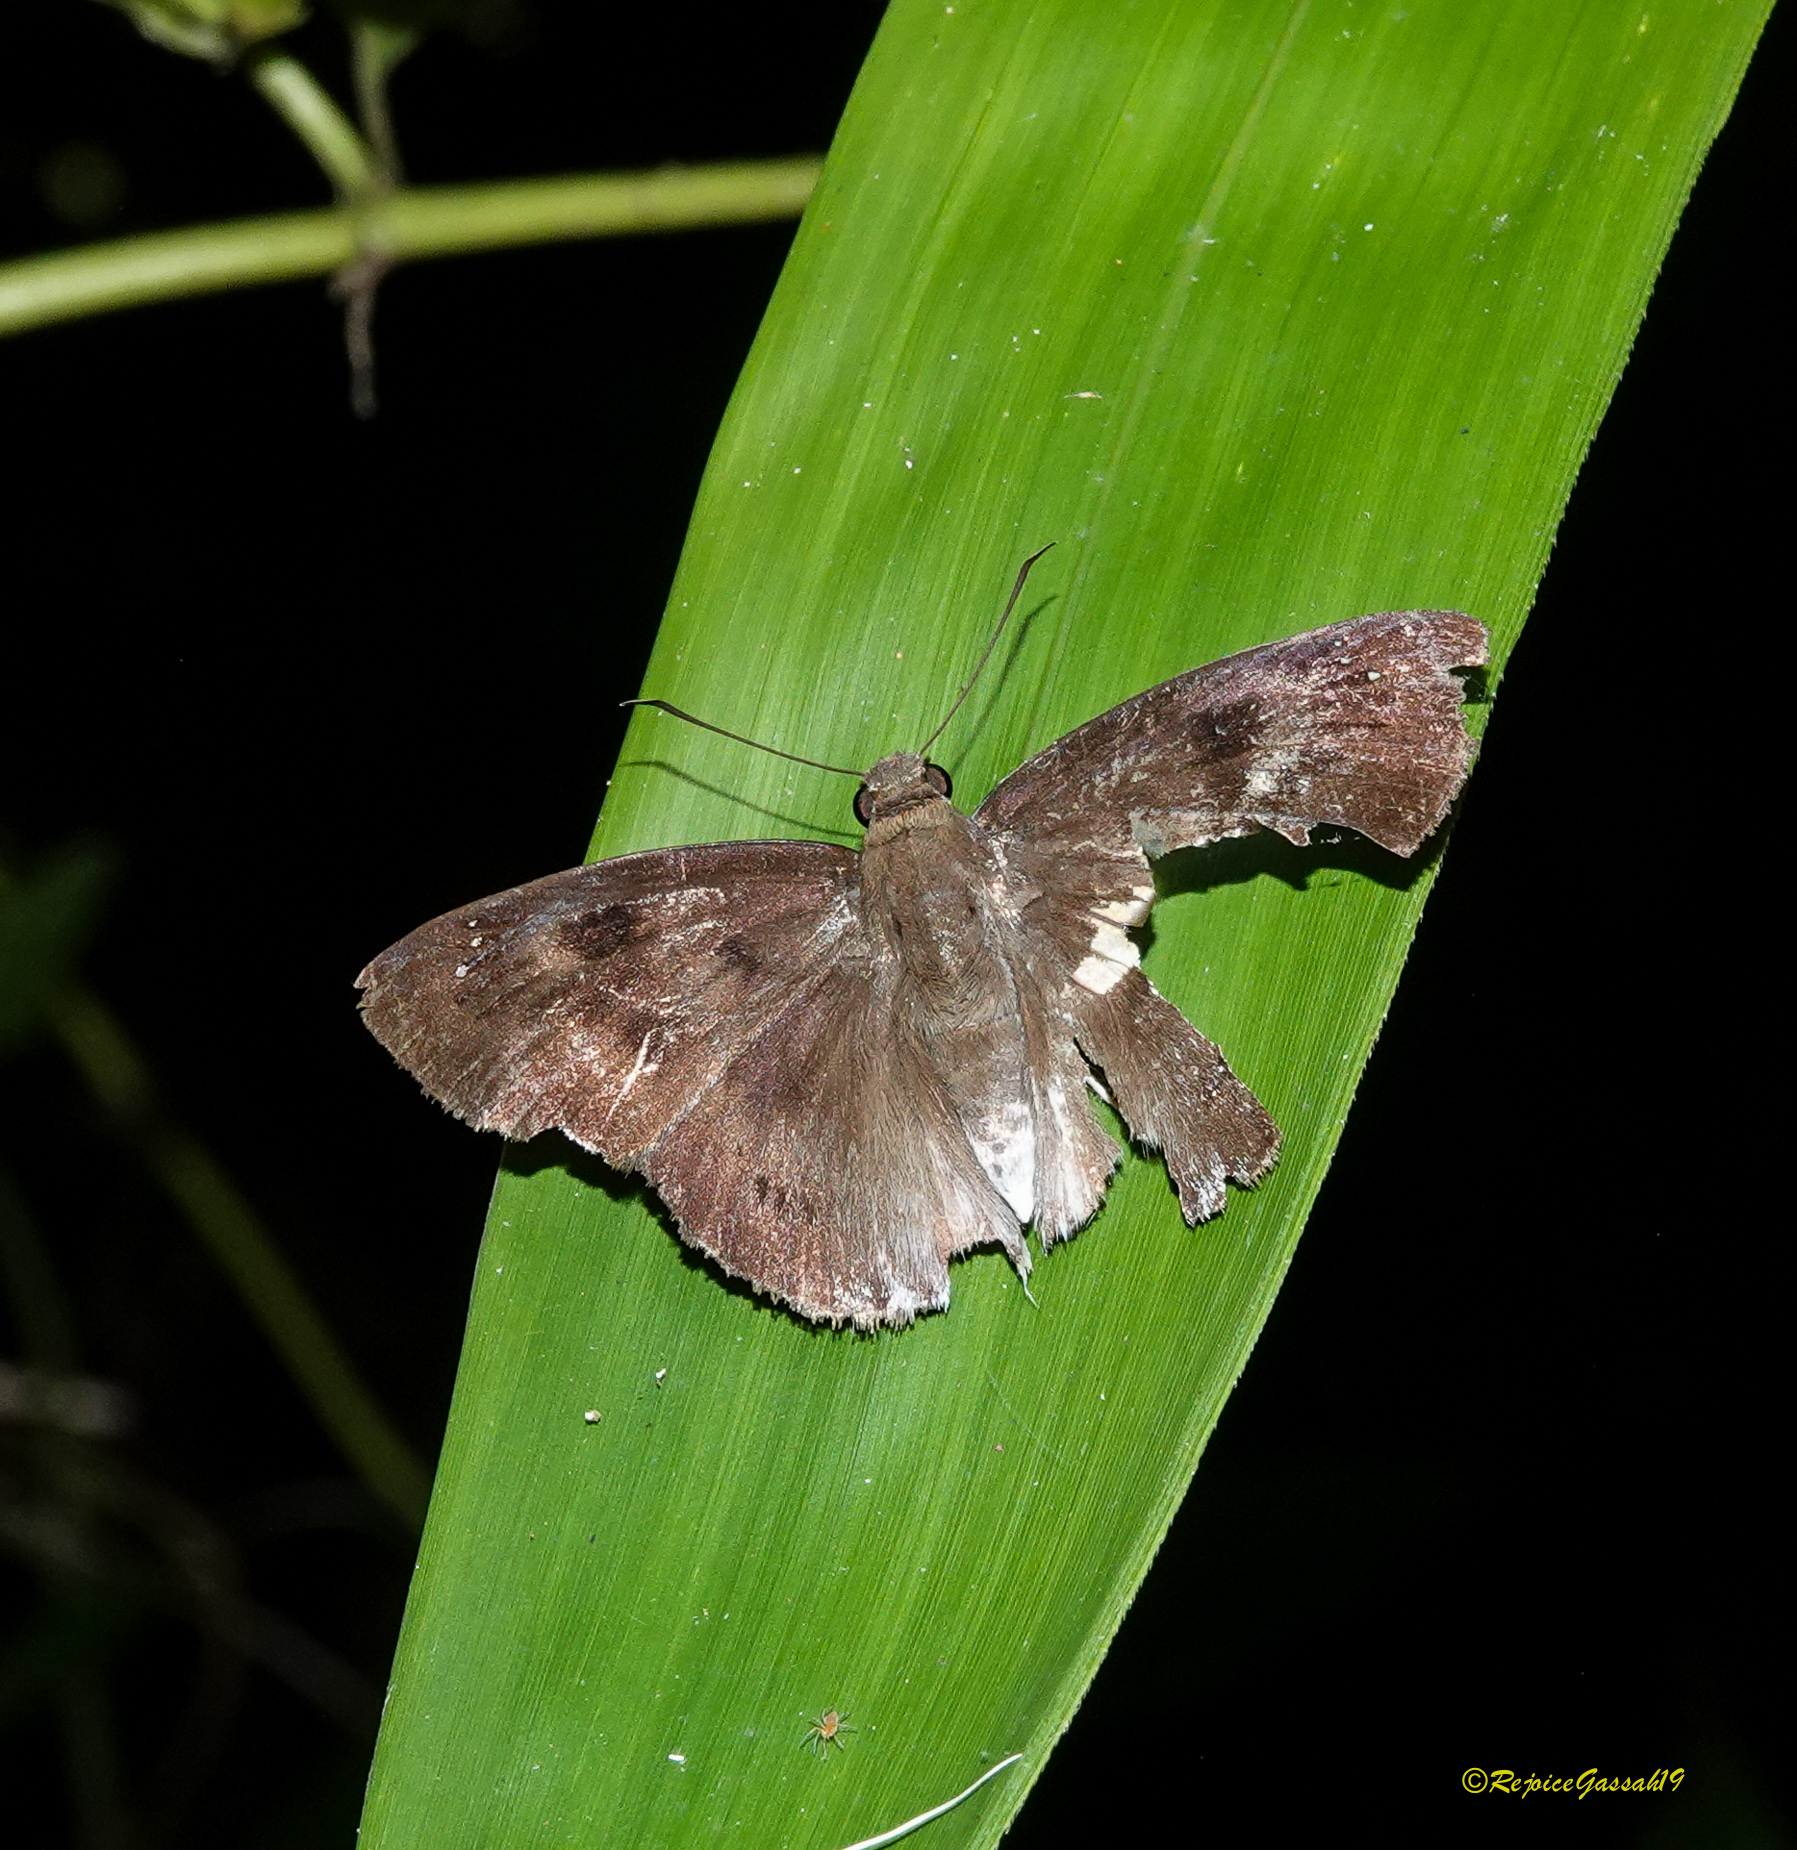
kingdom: Animalia
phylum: Arthropoda
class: Insecta
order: Lepidoptera
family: Hesperiidae
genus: Tagiades
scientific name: Tagiades japetus
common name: Pied flat
